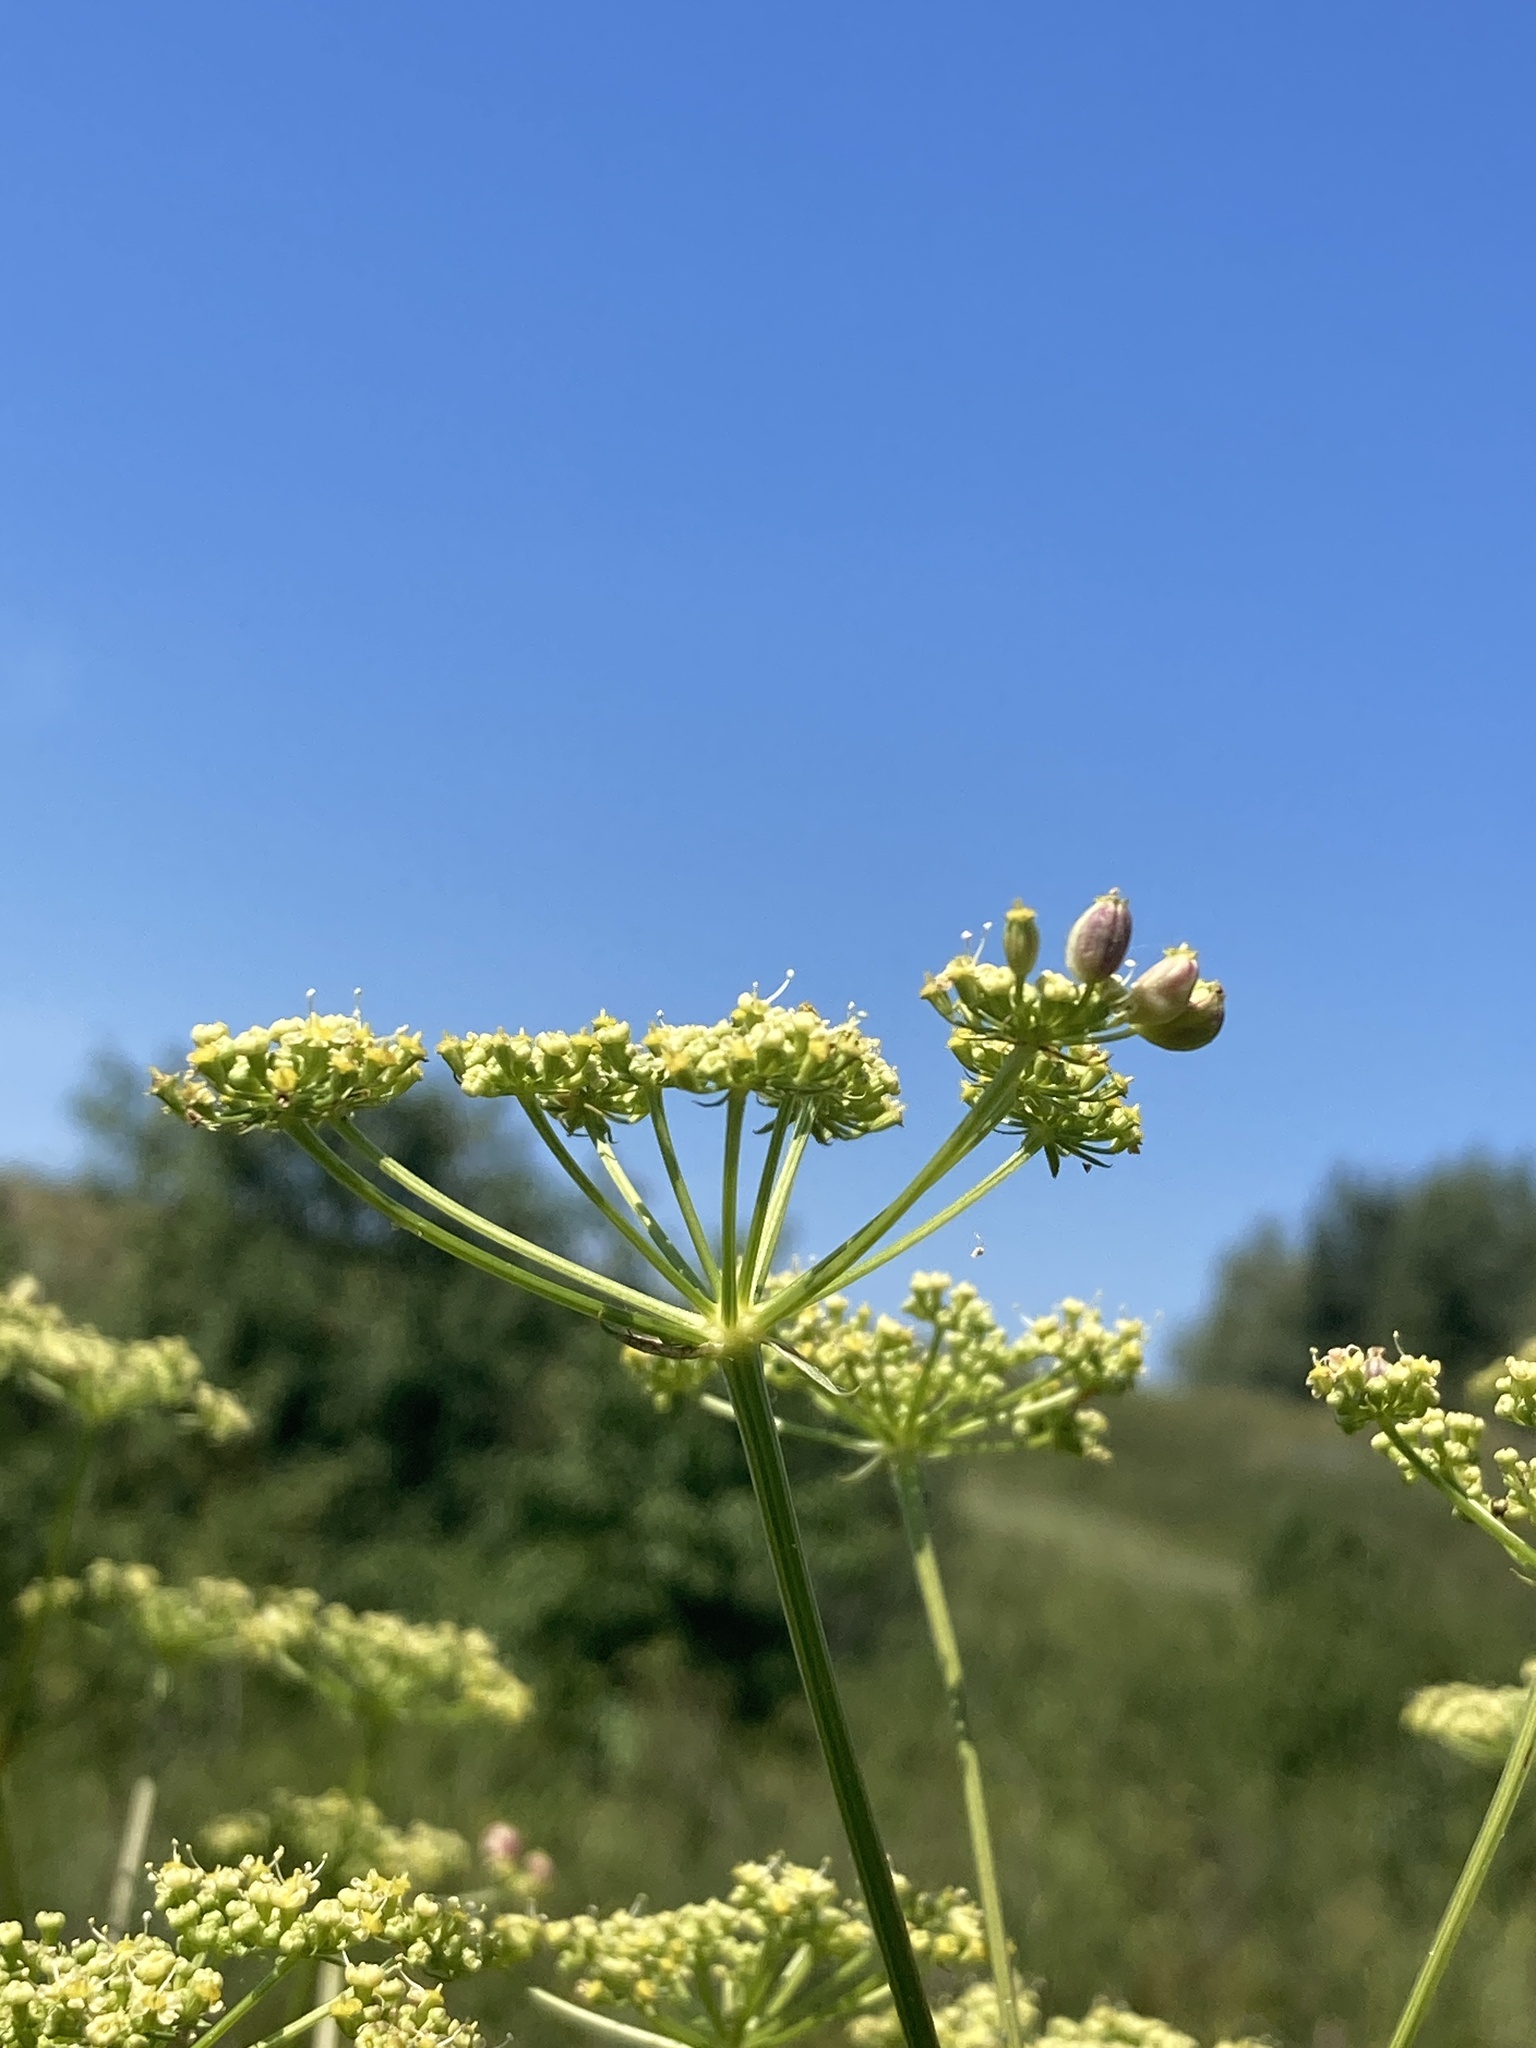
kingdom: Plantae
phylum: Tracheophyta
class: Magnoliopsida
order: Apiales
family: Apiaceae
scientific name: Apiaceae
